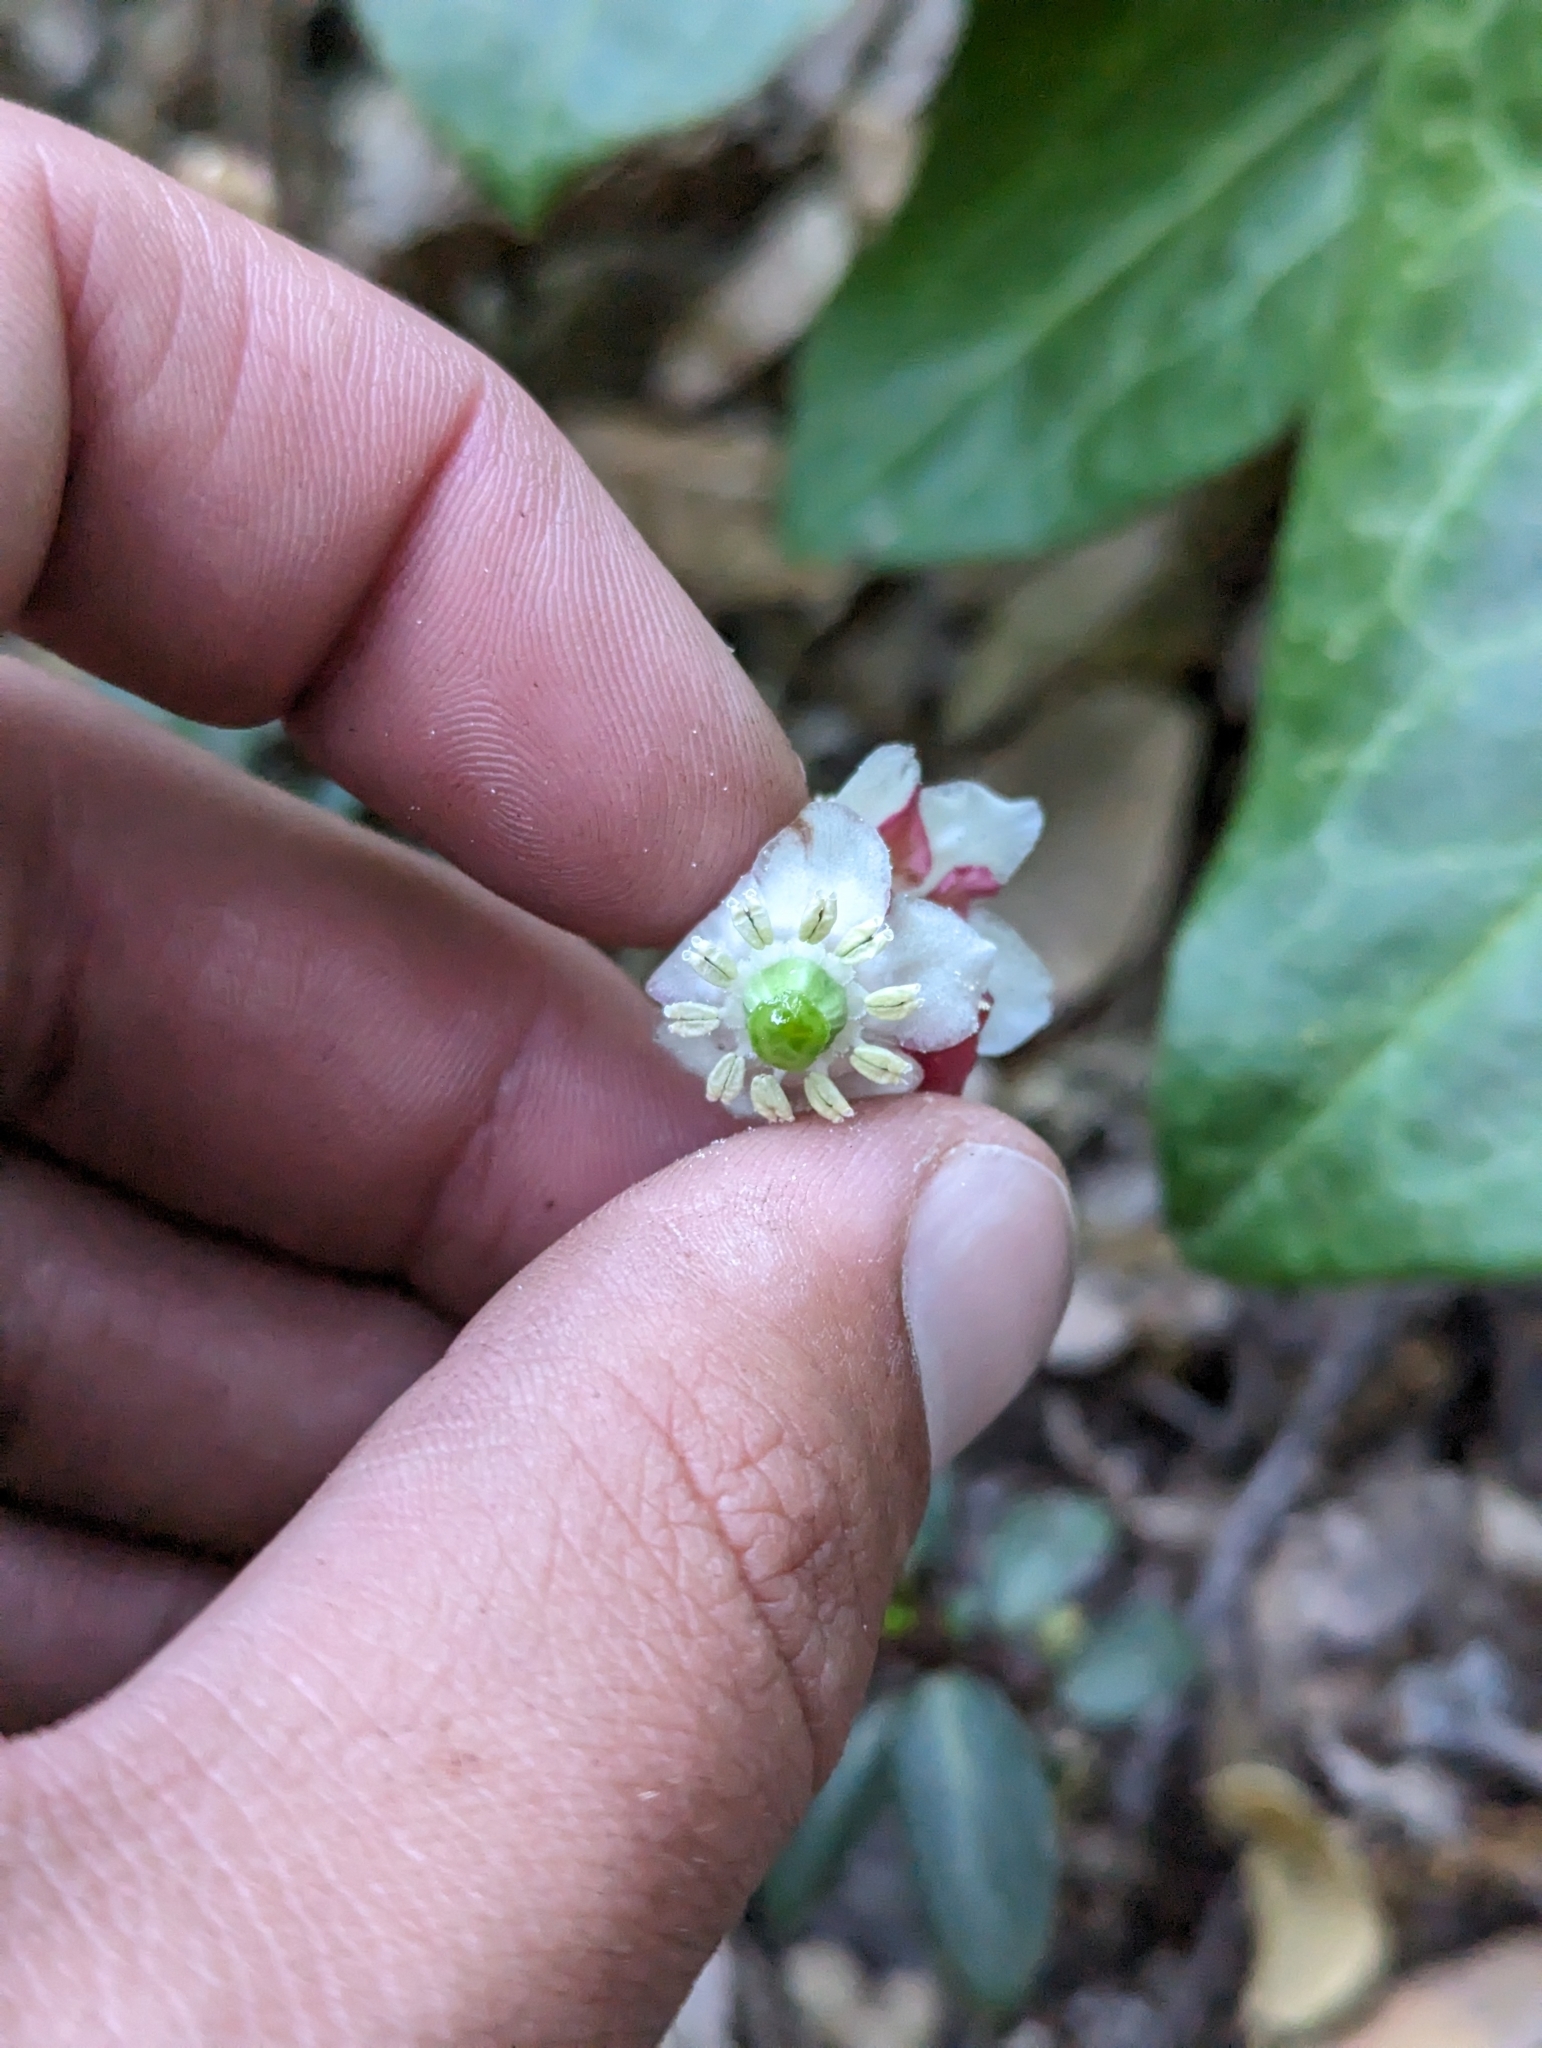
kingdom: Plantae
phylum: Tracheophyta
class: Magnoliopsida
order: Ericales
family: Ericaceae
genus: Chimaphila
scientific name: Chimaphila menziesii
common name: Menzies' pipsissewa
